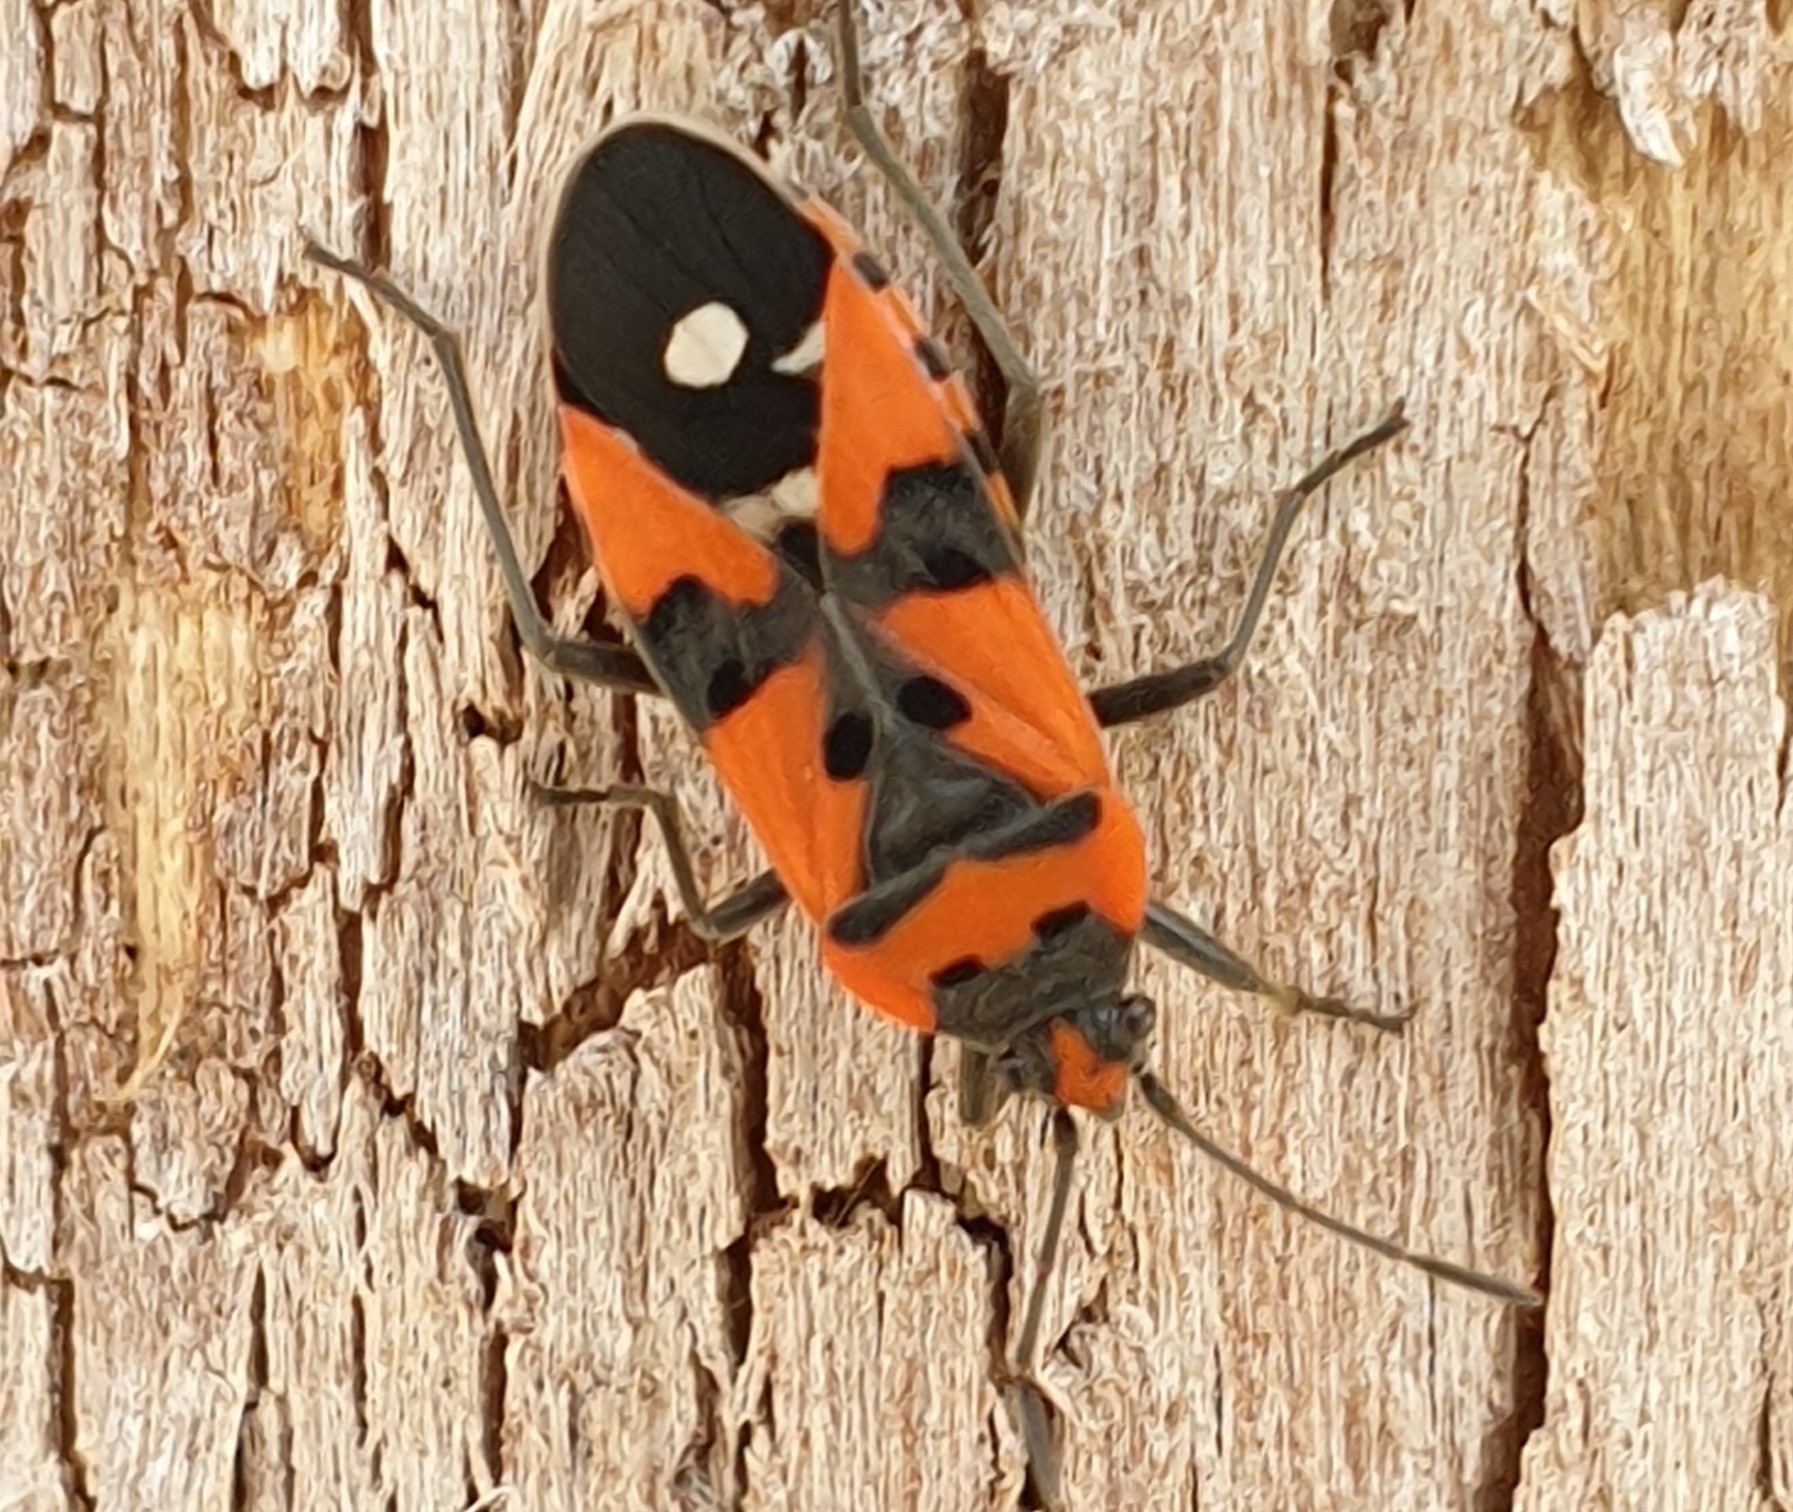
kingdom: Animalia
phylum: Arthropoda
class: Insecta
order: Hemiptera
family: Lygaeidae
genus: Lygaeus
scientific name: Lygaeus equestris
